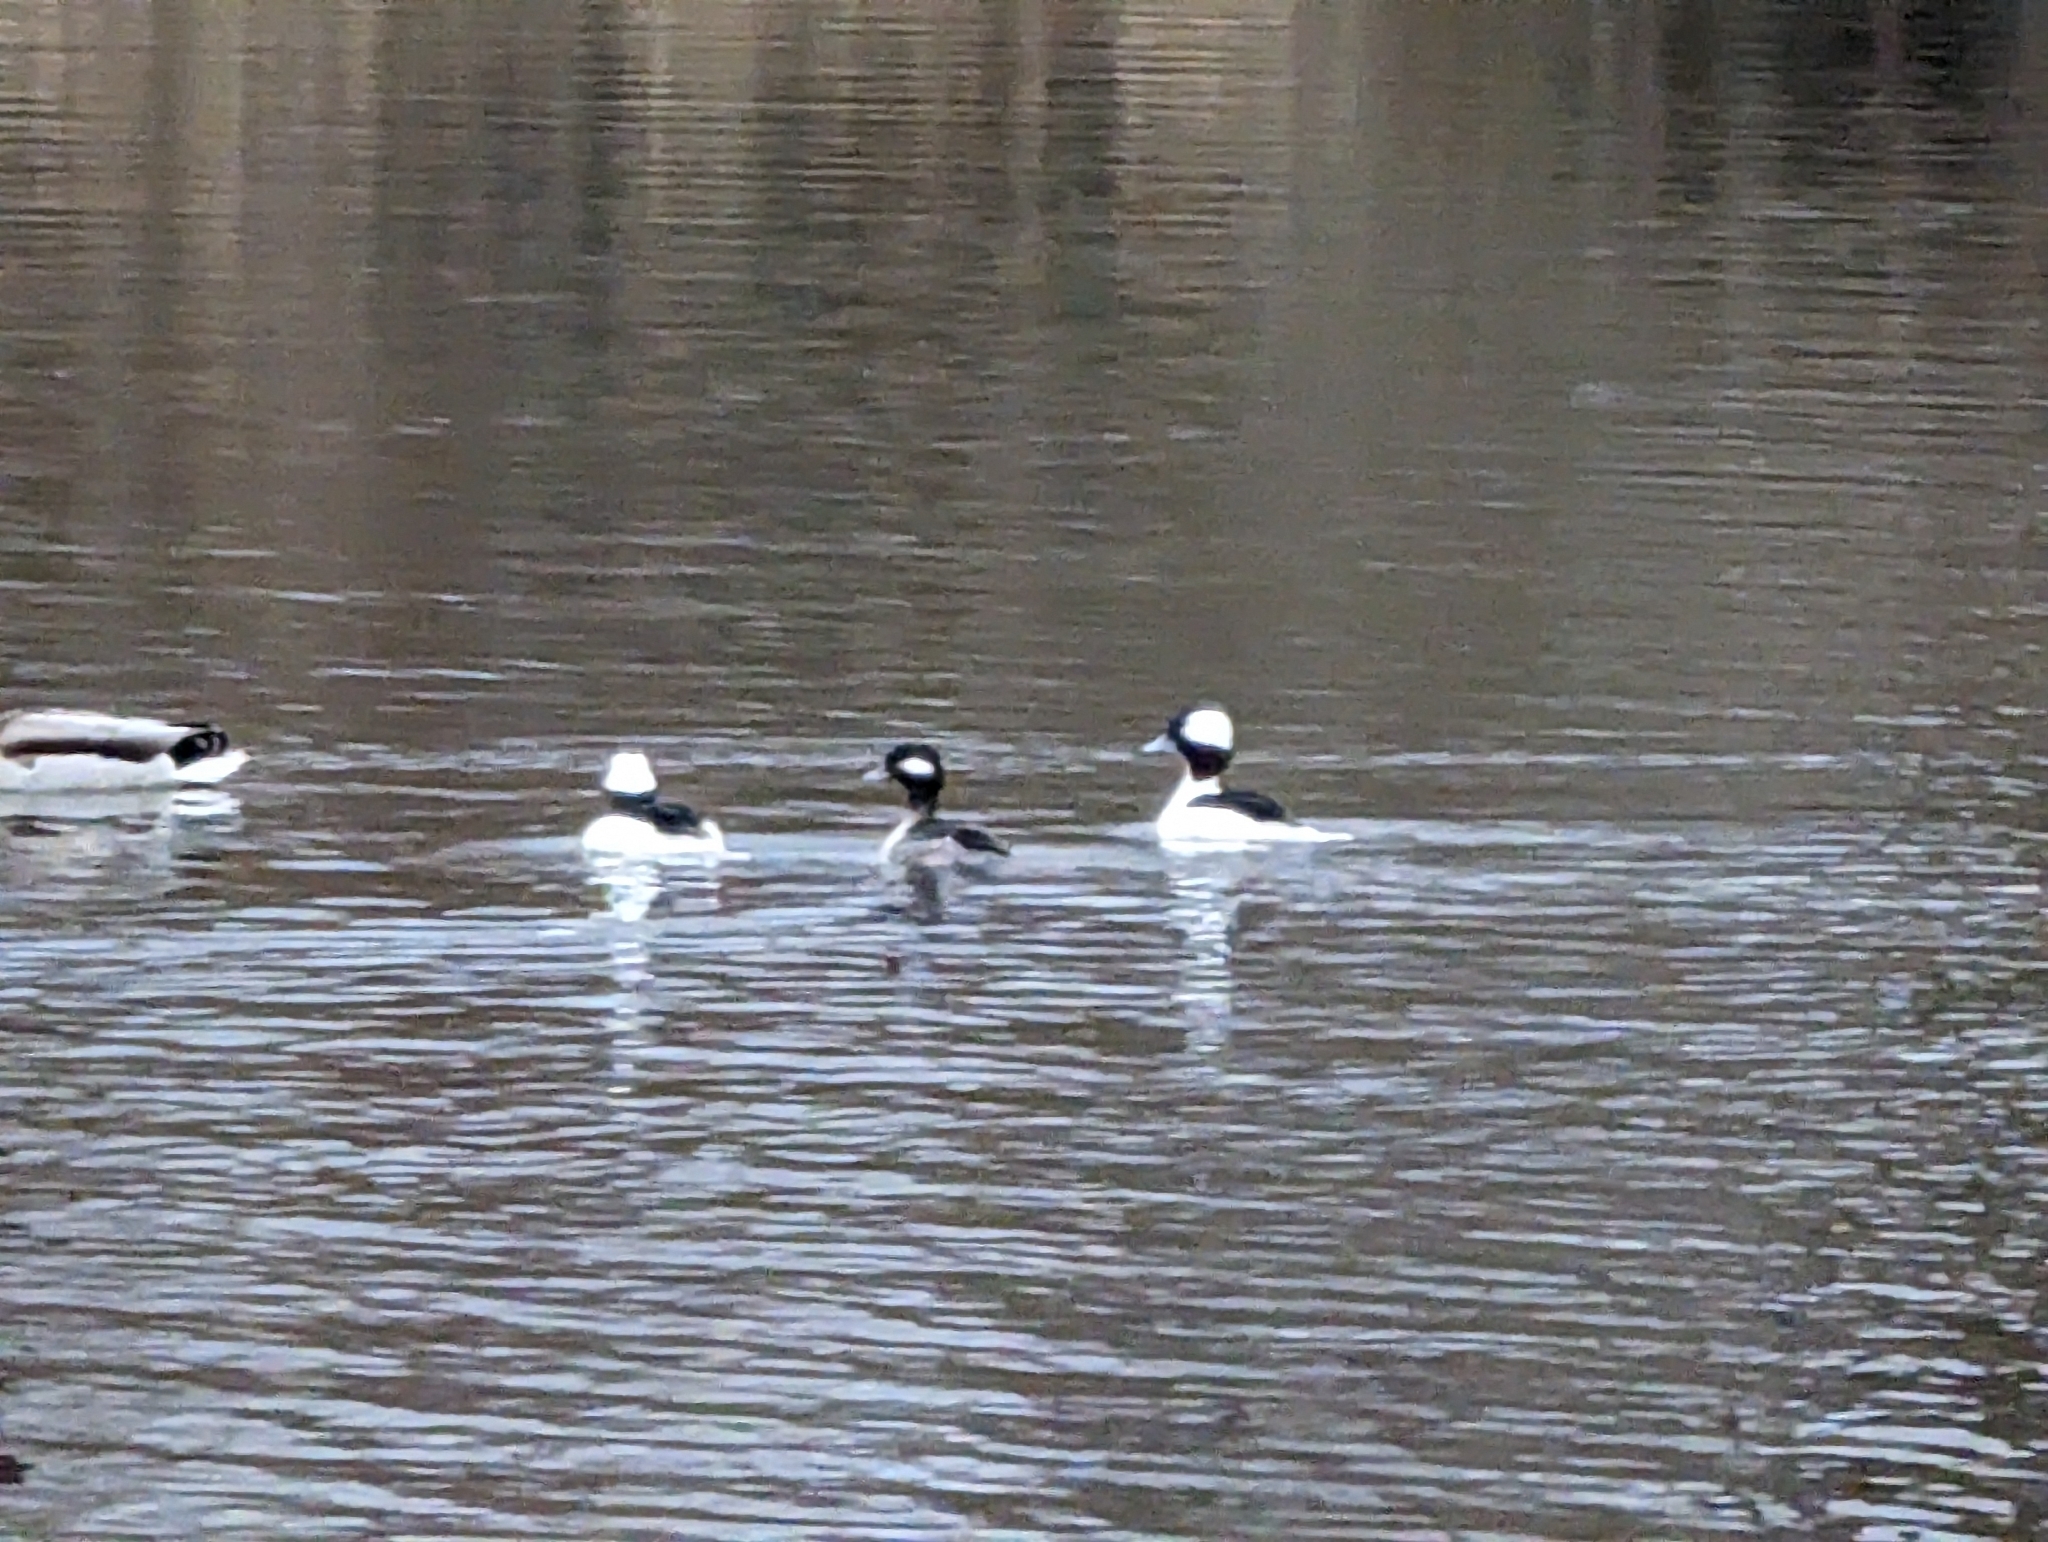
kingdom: Animalia
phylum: Chordata
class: Aves
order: Anseriformes
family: Anatidae
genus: Bucephala
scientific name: Bucephala albeola
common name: Bufflehead
